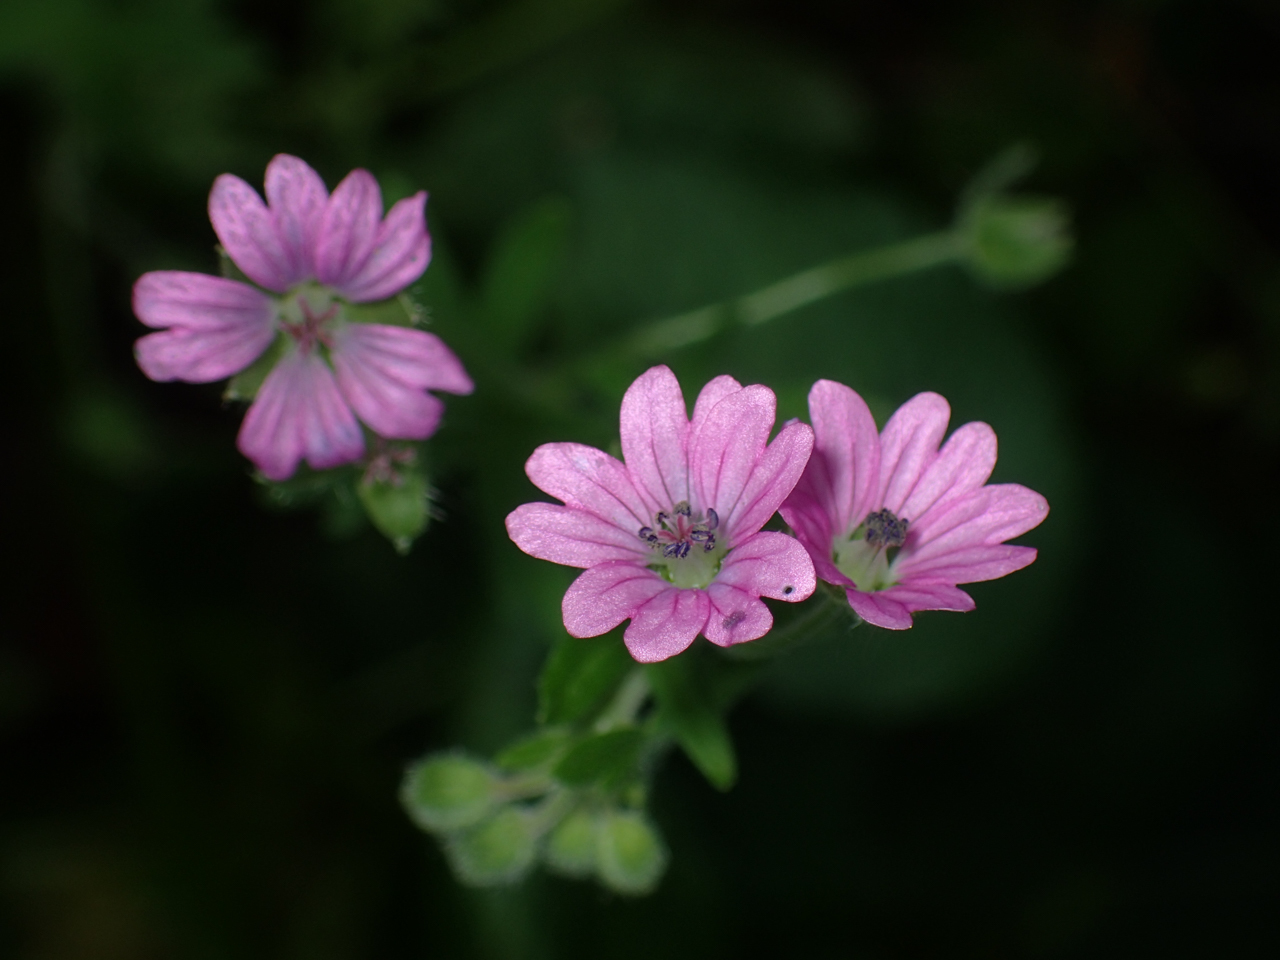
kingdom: Plantae
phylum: Tracheophyta
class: Magnoliopsida
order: Geraniales
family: Geraniaceae
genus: Geranium
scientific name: Geranium molle
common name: Dove's-foot crane's-bill
